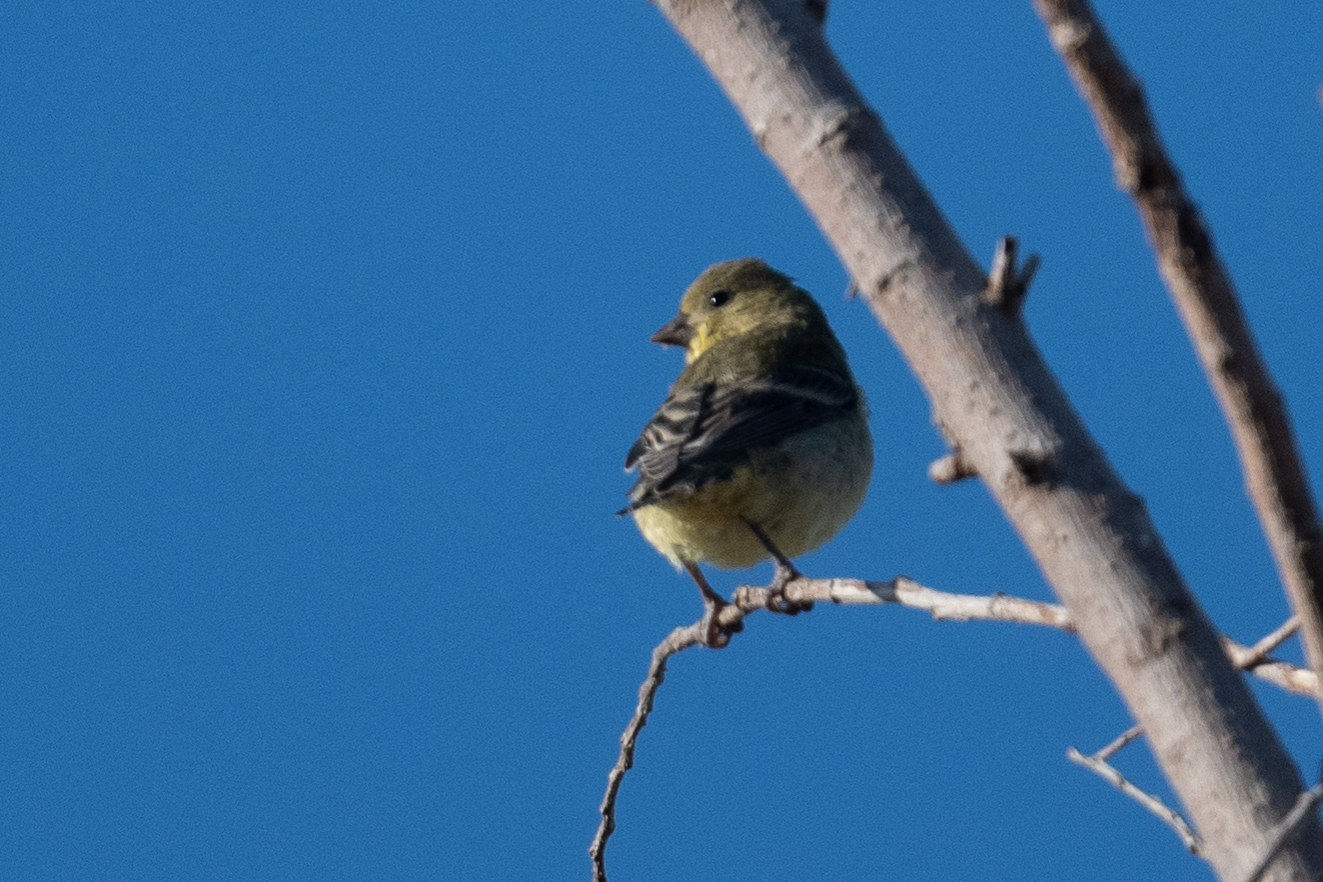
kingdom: Animalia
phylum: Chordata
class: Aves
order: Passeriformes
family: Fringillidae
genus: Spinus
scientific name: Spinus psaltria
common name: Lesser goldfinch
